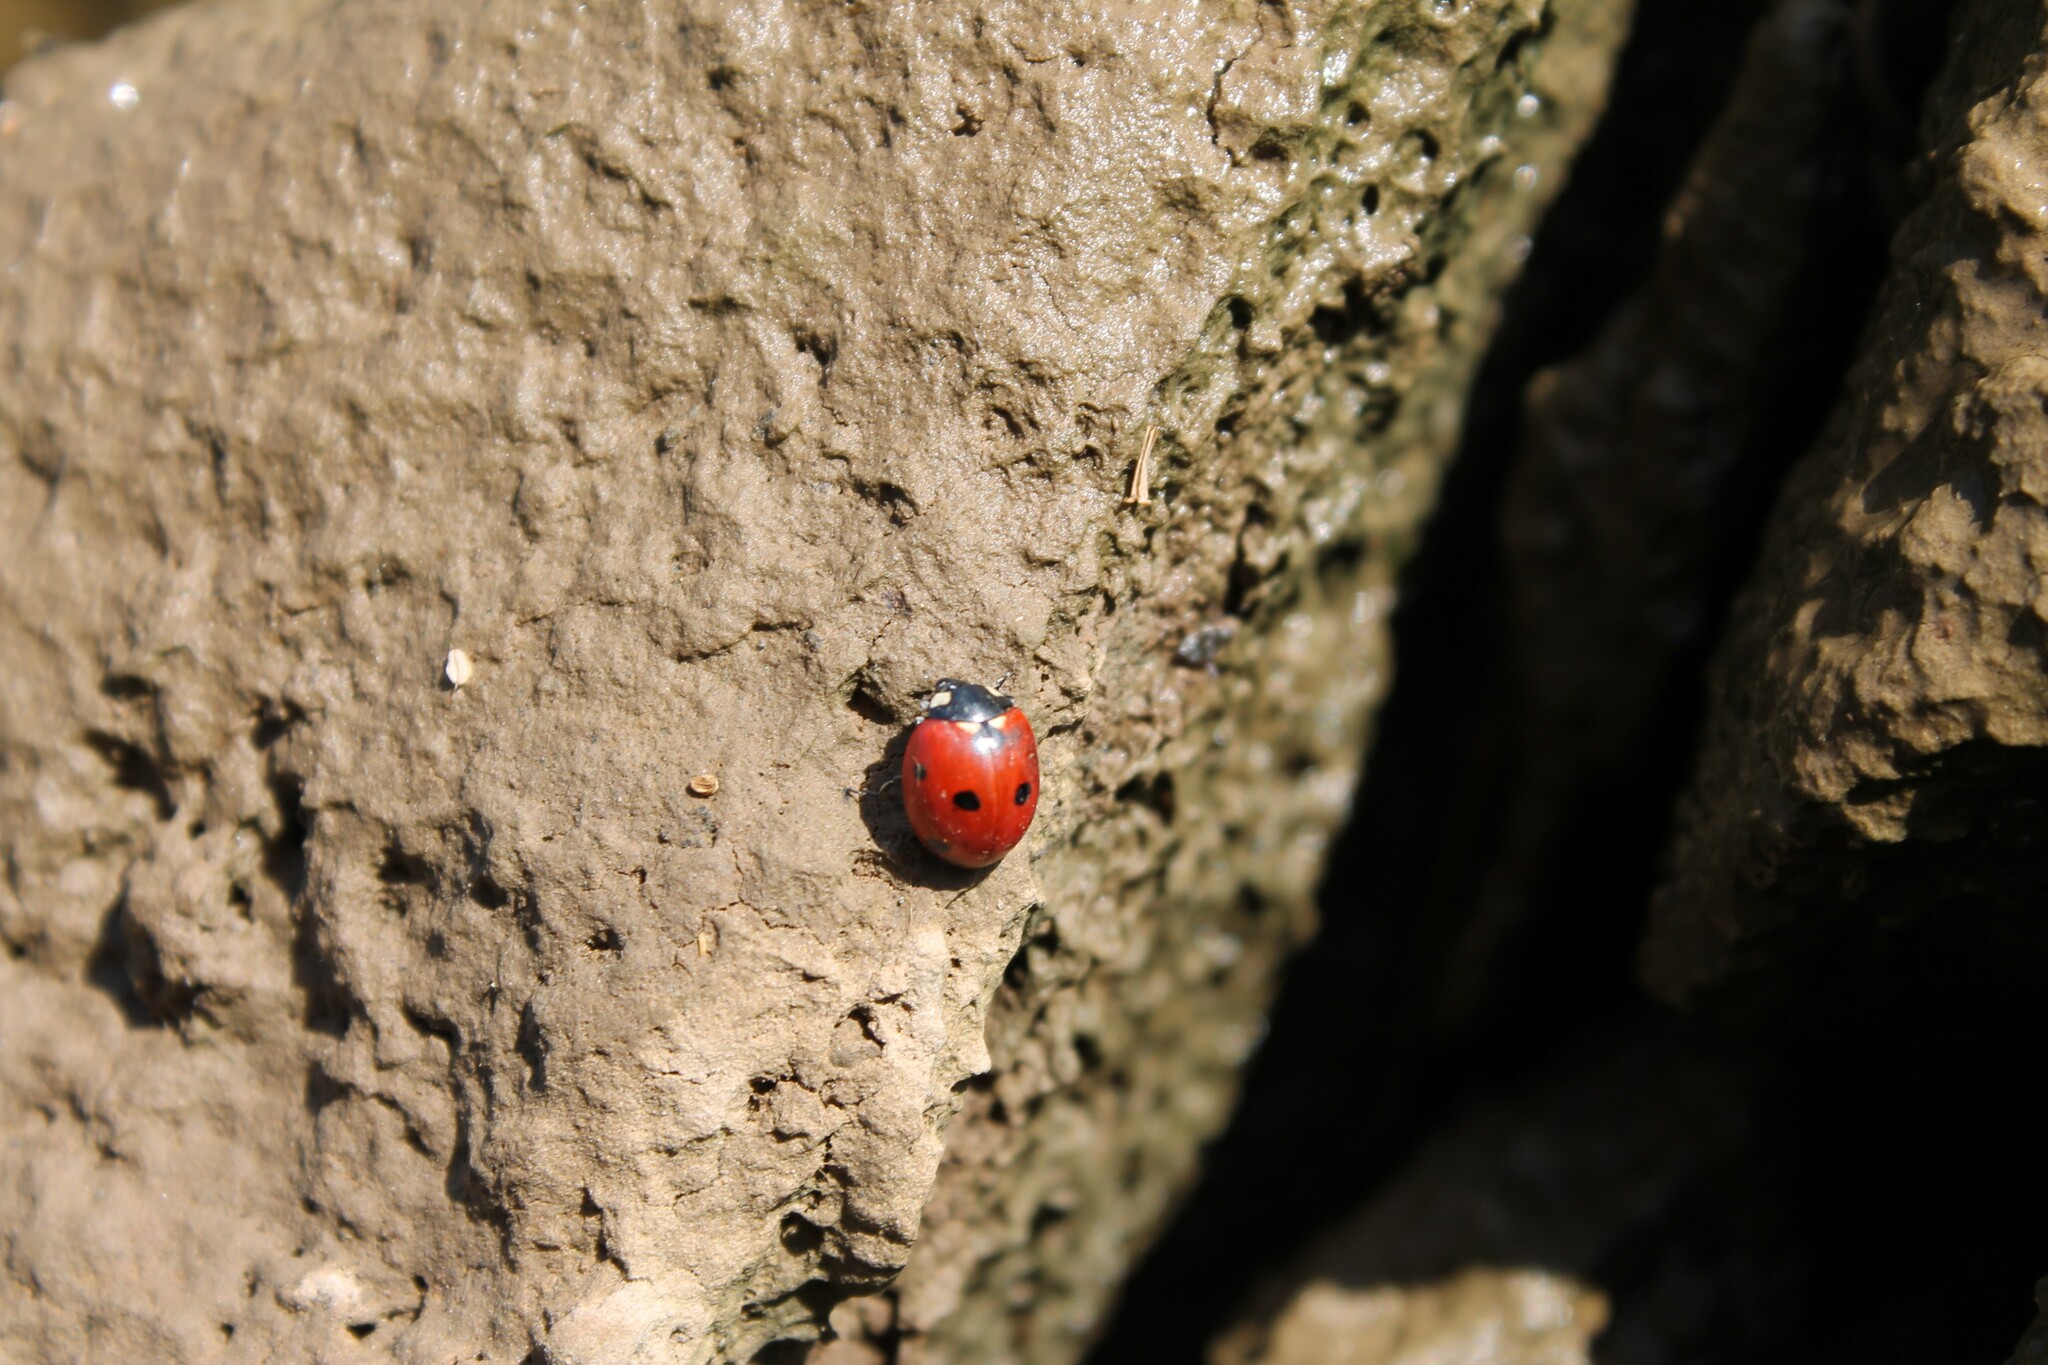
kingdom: Animalia
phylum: Arthropoda
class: Insecta
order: Coleoptera
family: Coccinellidae
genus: Coccinella
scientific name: Coccinella septempunctata
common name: Sevenspotted lady beetle
